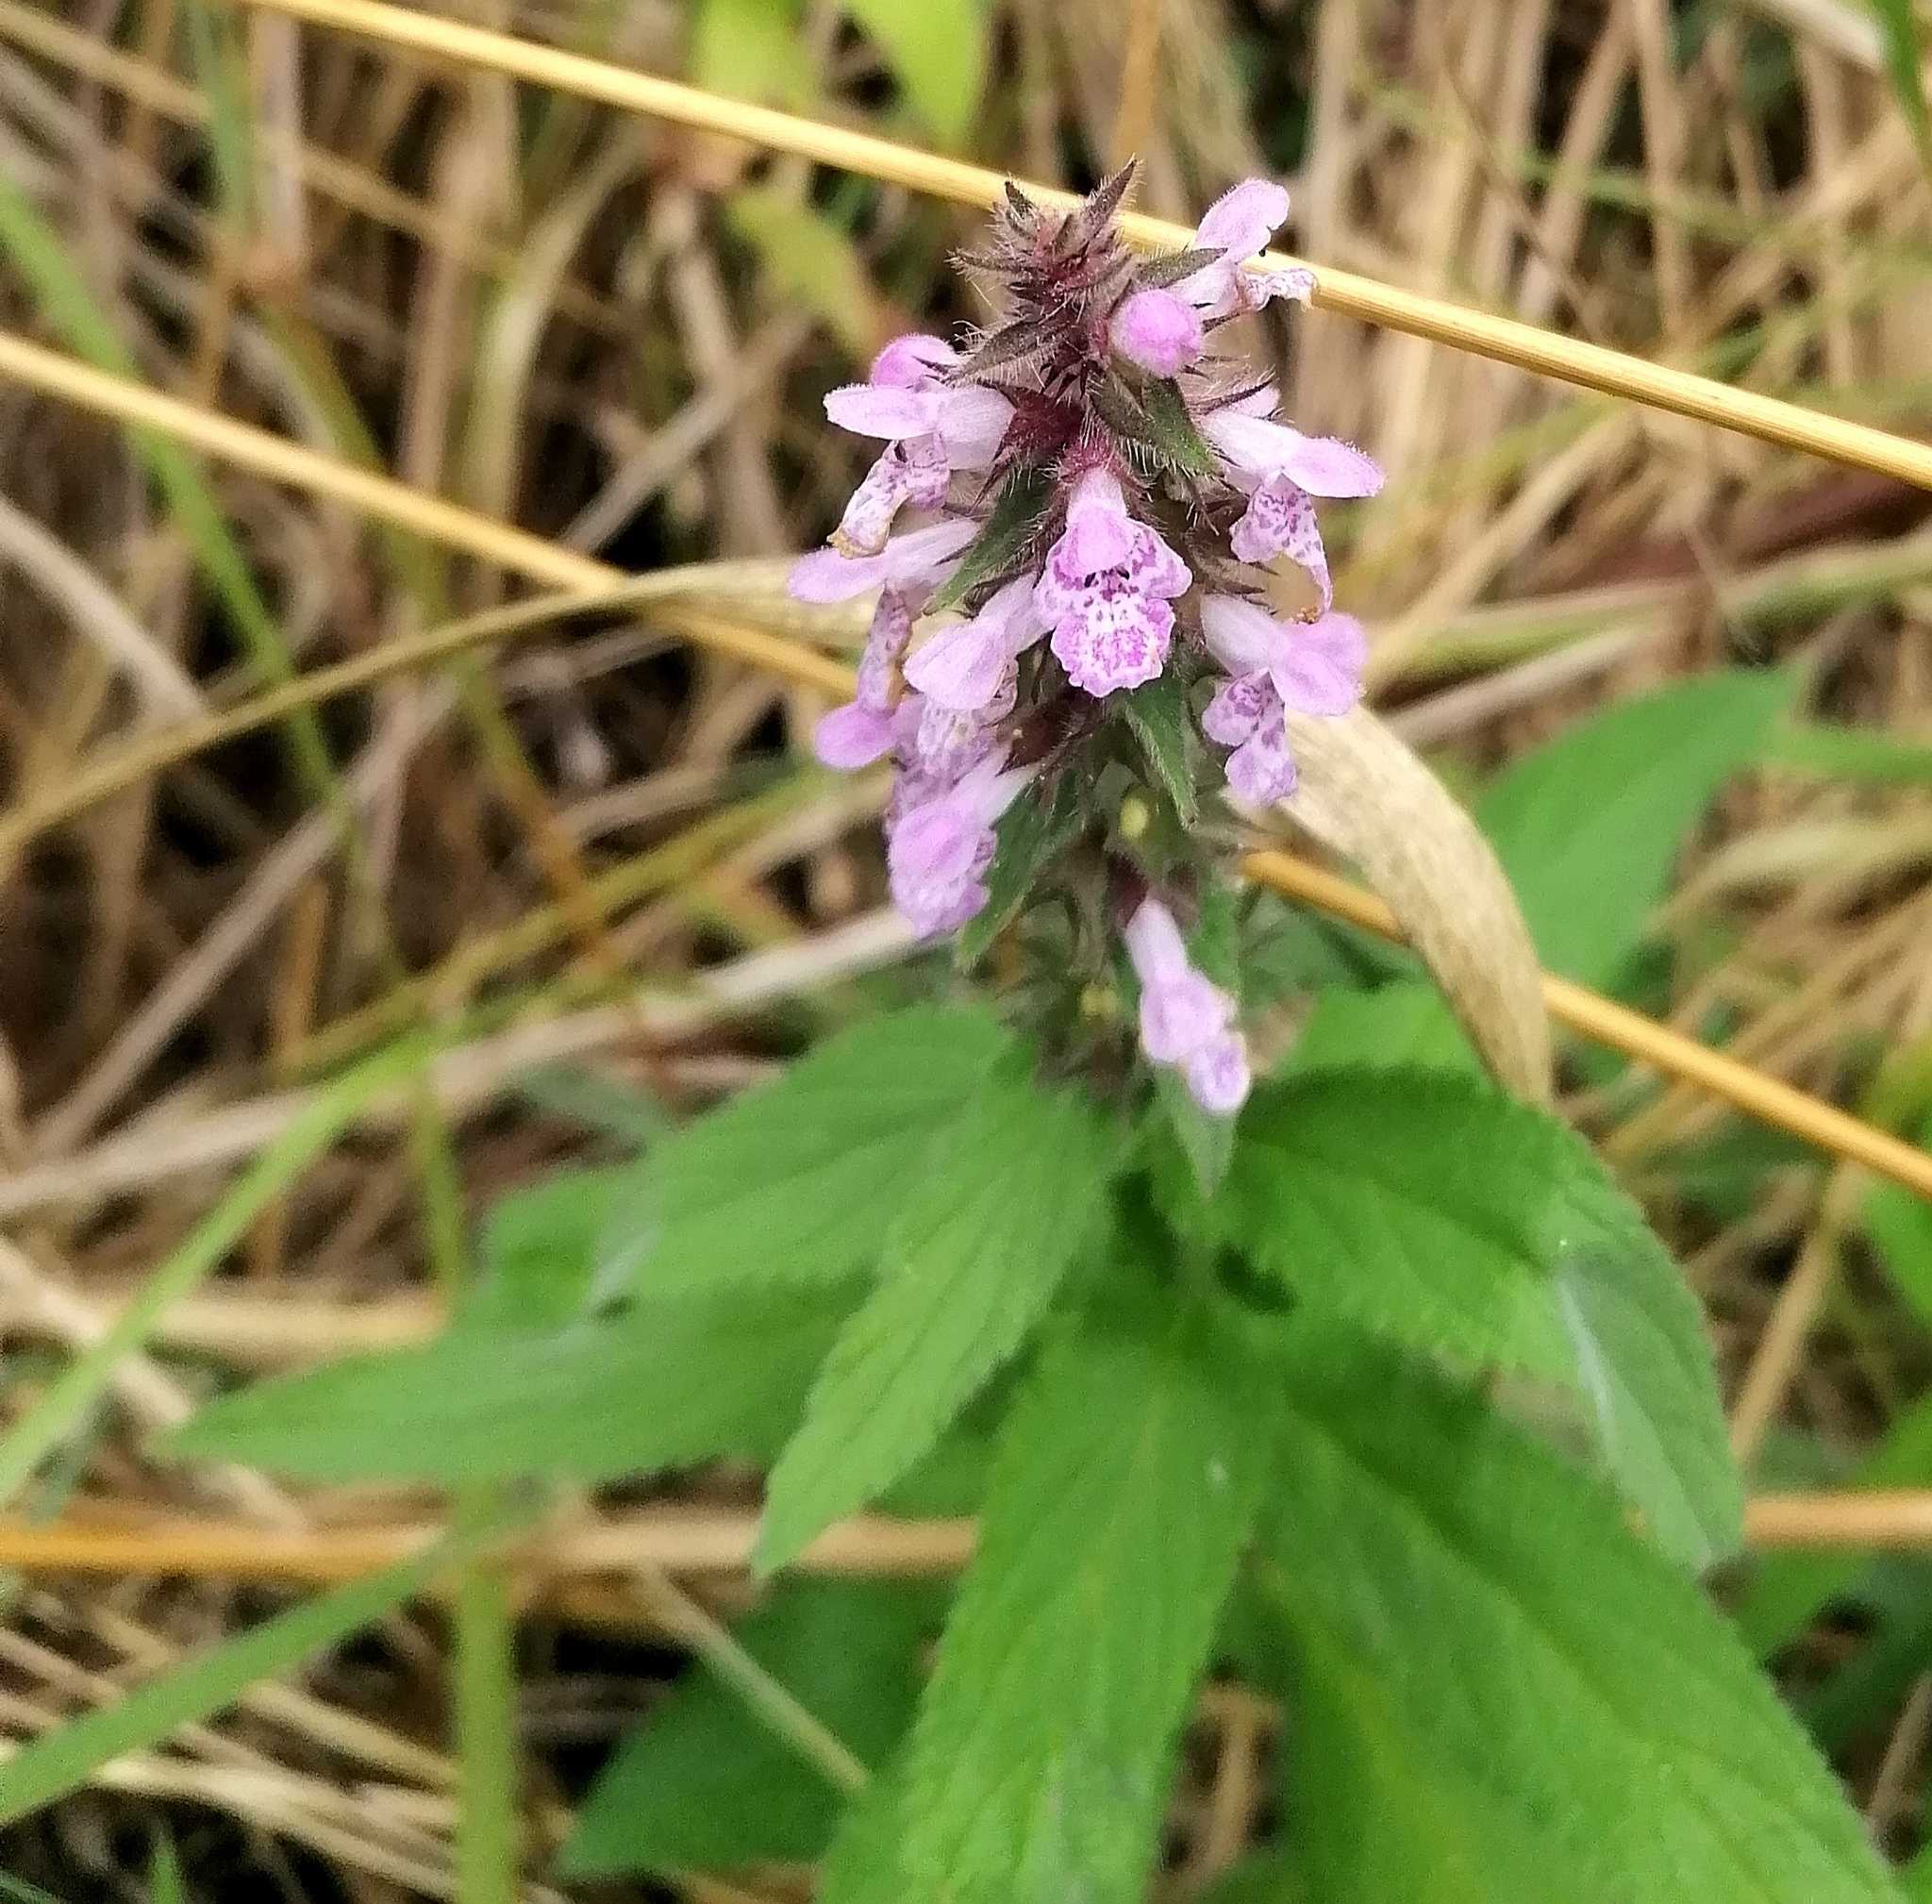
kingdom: Plantae
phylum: Tracheophyta
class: Magnoliopsida
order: Lamiales
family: Lamiaceae
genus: Stachys
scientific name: Stachys palustris
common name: Marsh woundwort
